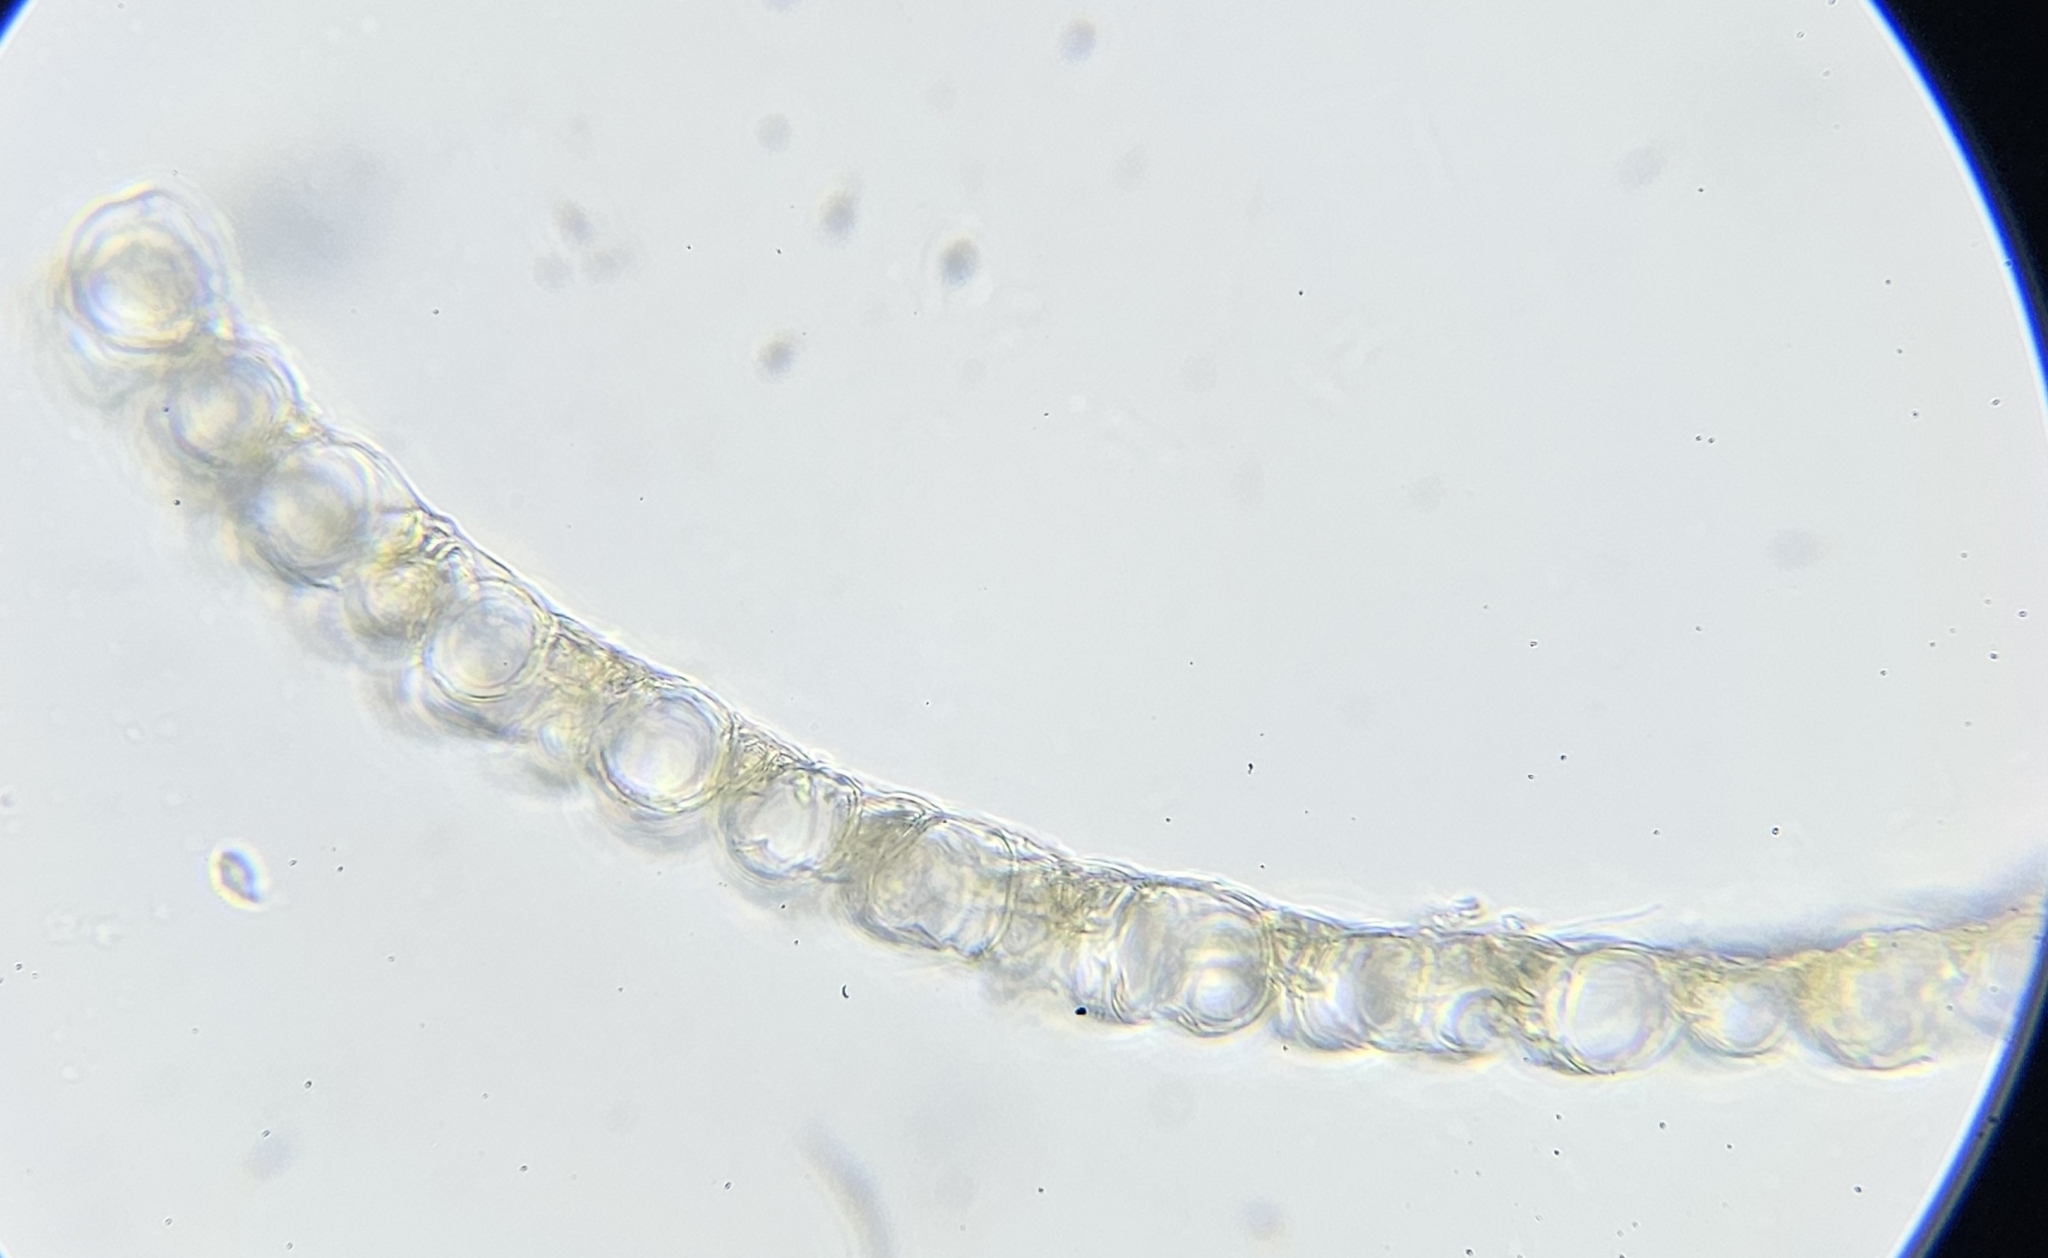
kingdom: Plantae
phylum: Bryophyta
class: Sphagnopsida
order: Sphagnales
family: Sphagnaceae
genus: Sphagnum
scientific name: Sphagnum subnitens
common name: Lustrous bog-moss
